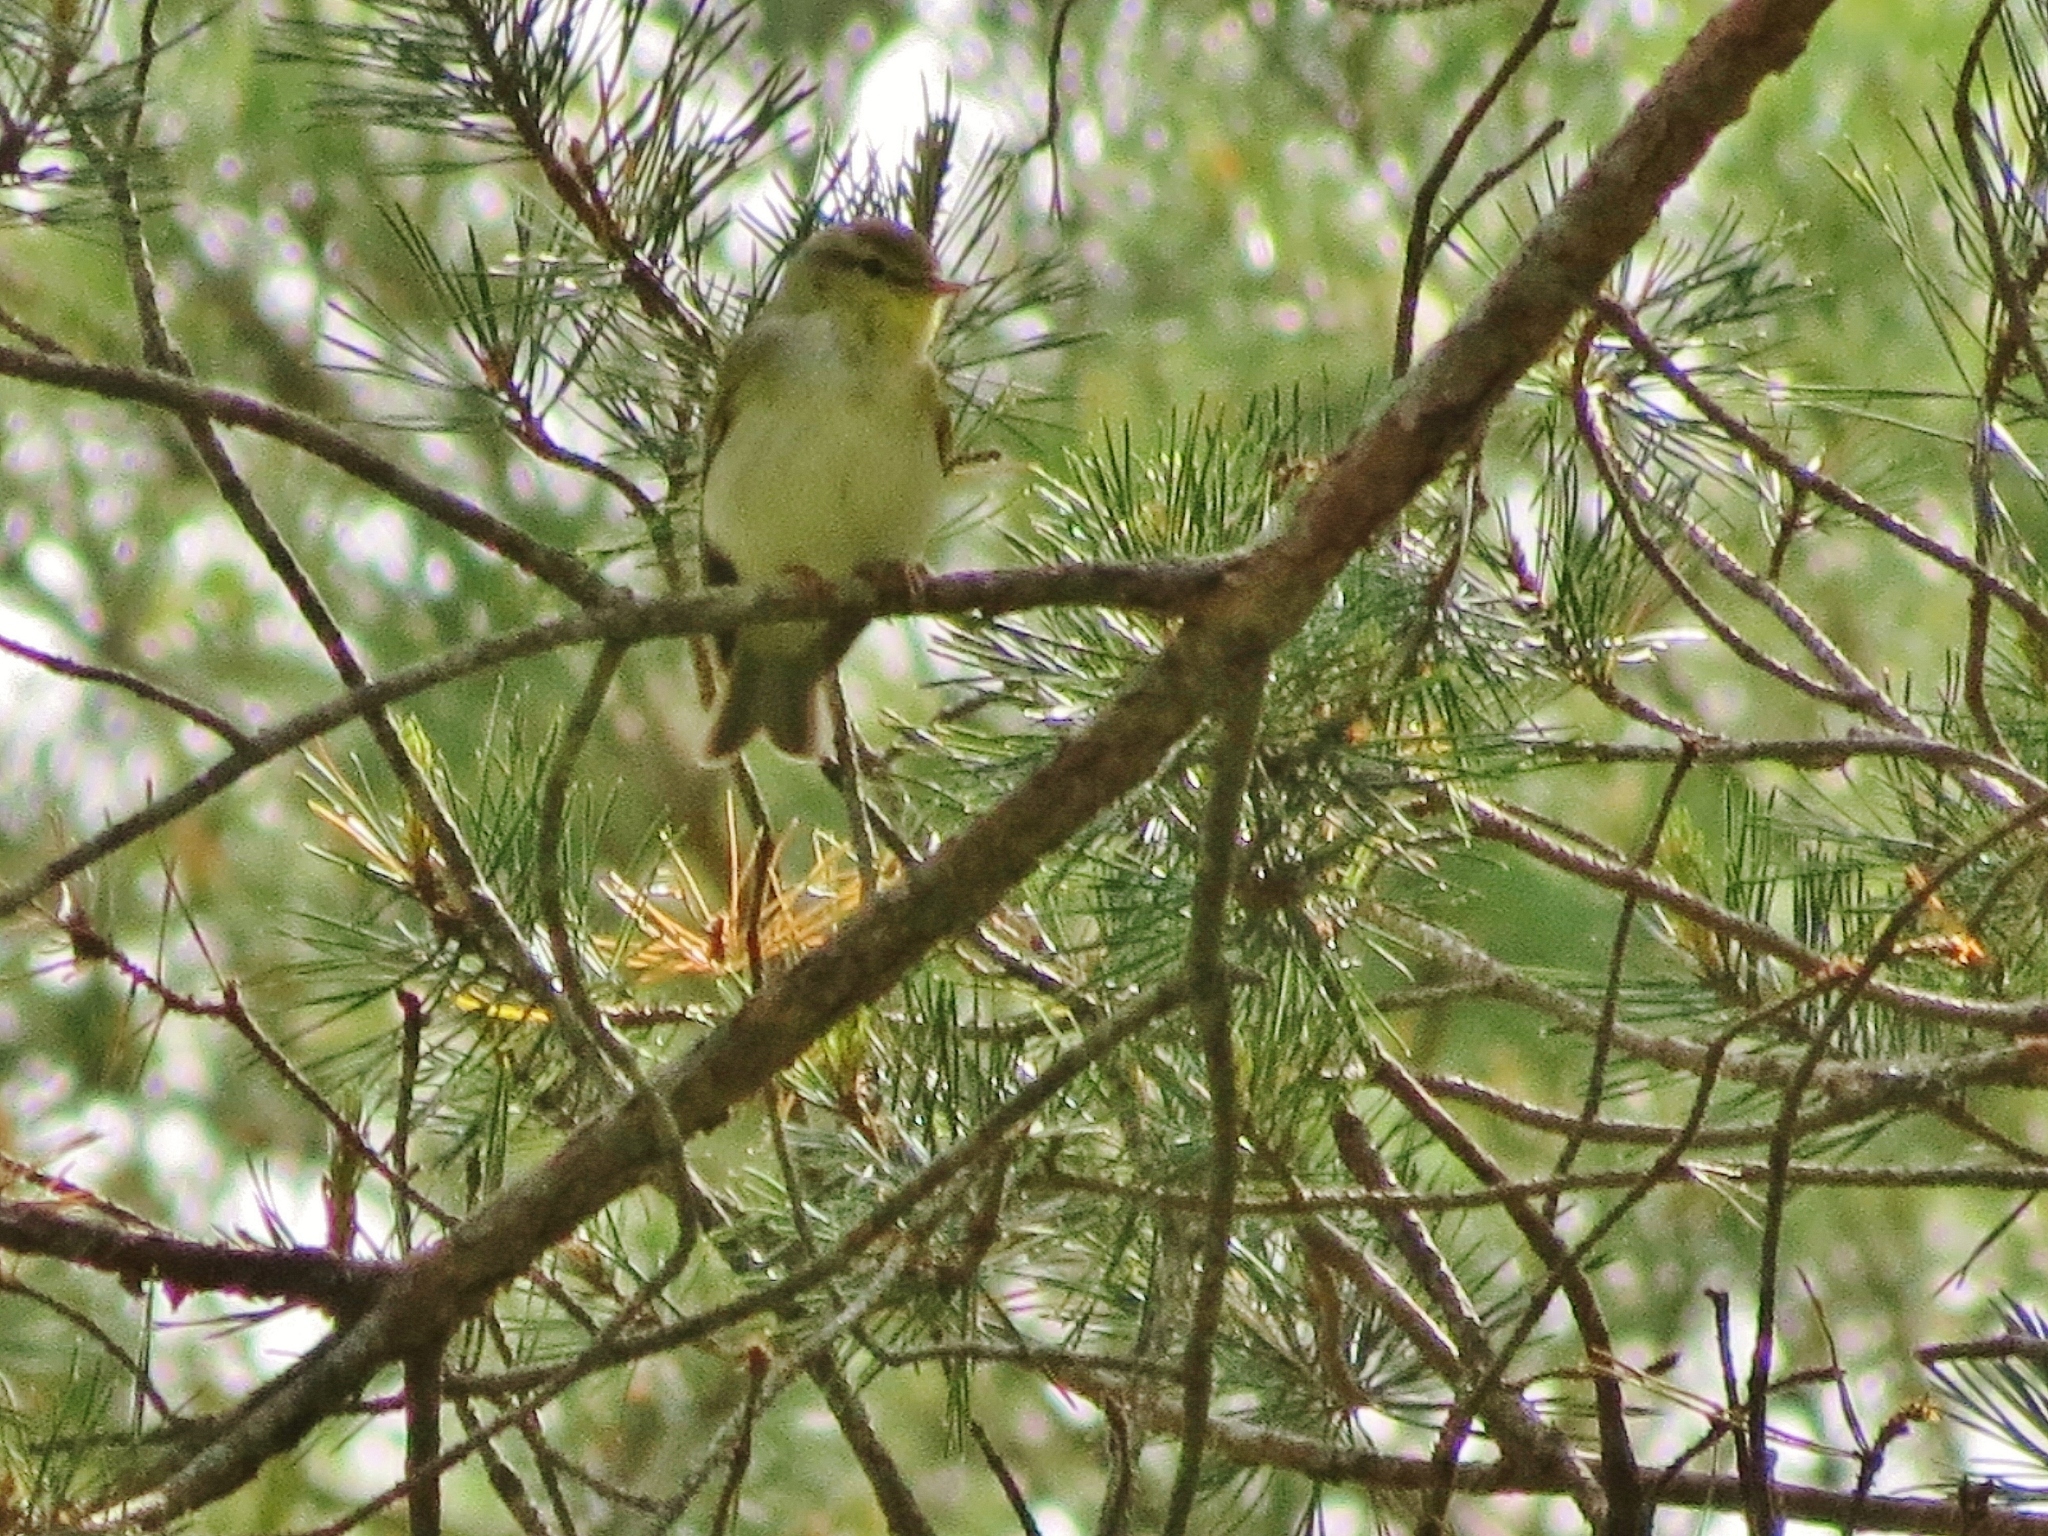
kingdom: Animalia
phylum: Chordata
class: Aves
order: Passeriformes
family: Phylloscopidae
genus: Phylloscopus
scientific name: Phylloscopus trochilus
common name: Willow warbler
